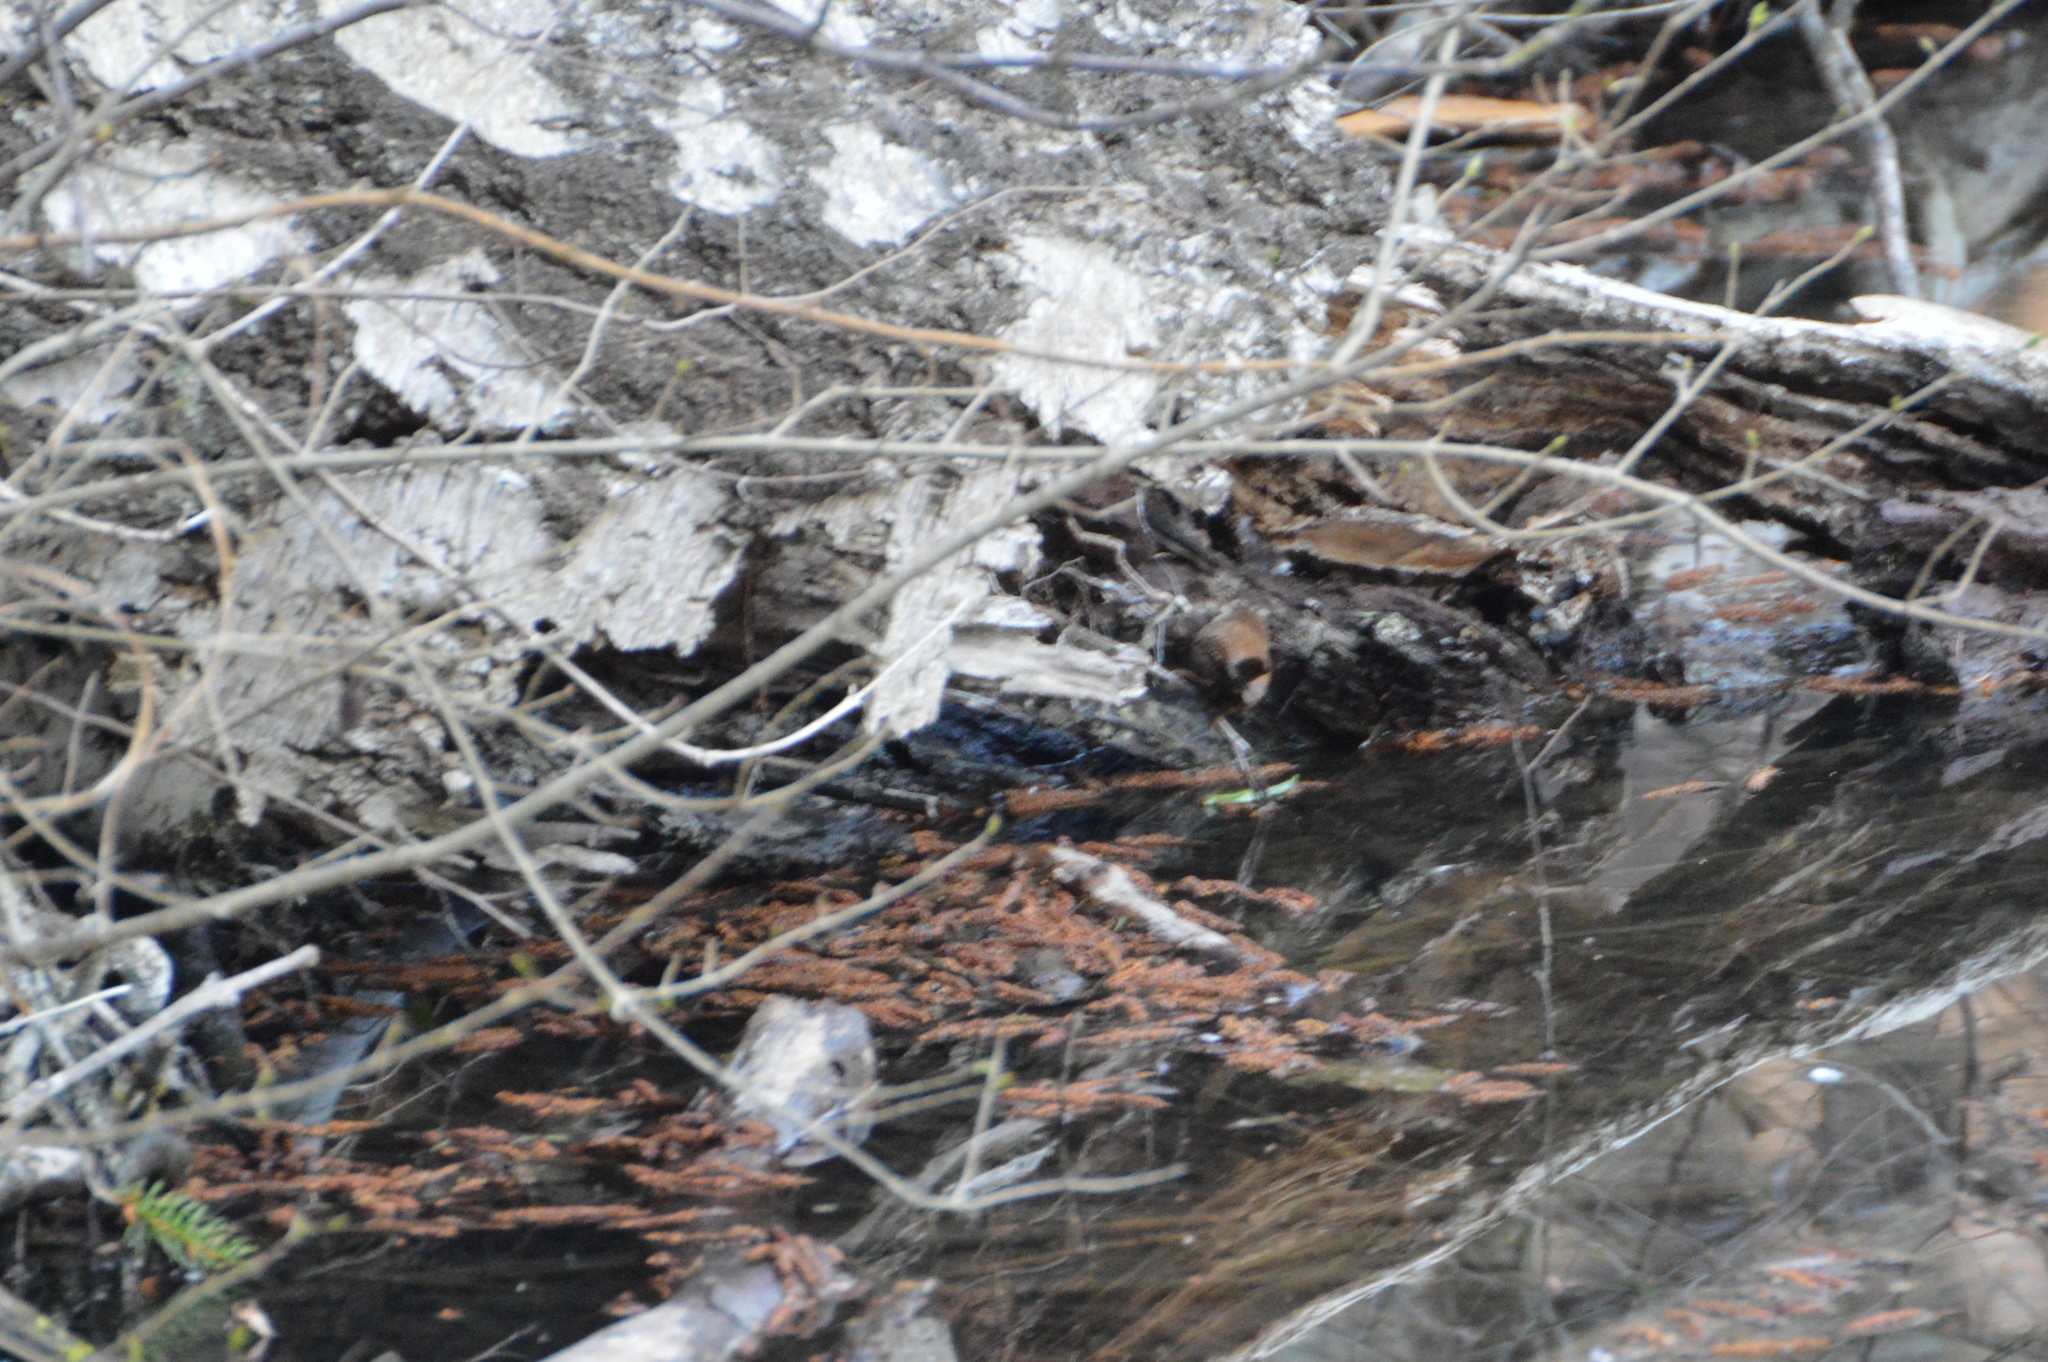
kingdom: Animalia
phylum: Chordata
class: Aves
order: Passeriformes
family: Troglodytidae
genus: Troglodytes
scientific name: Troglodytes troglodytes
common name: Eurasian wren
